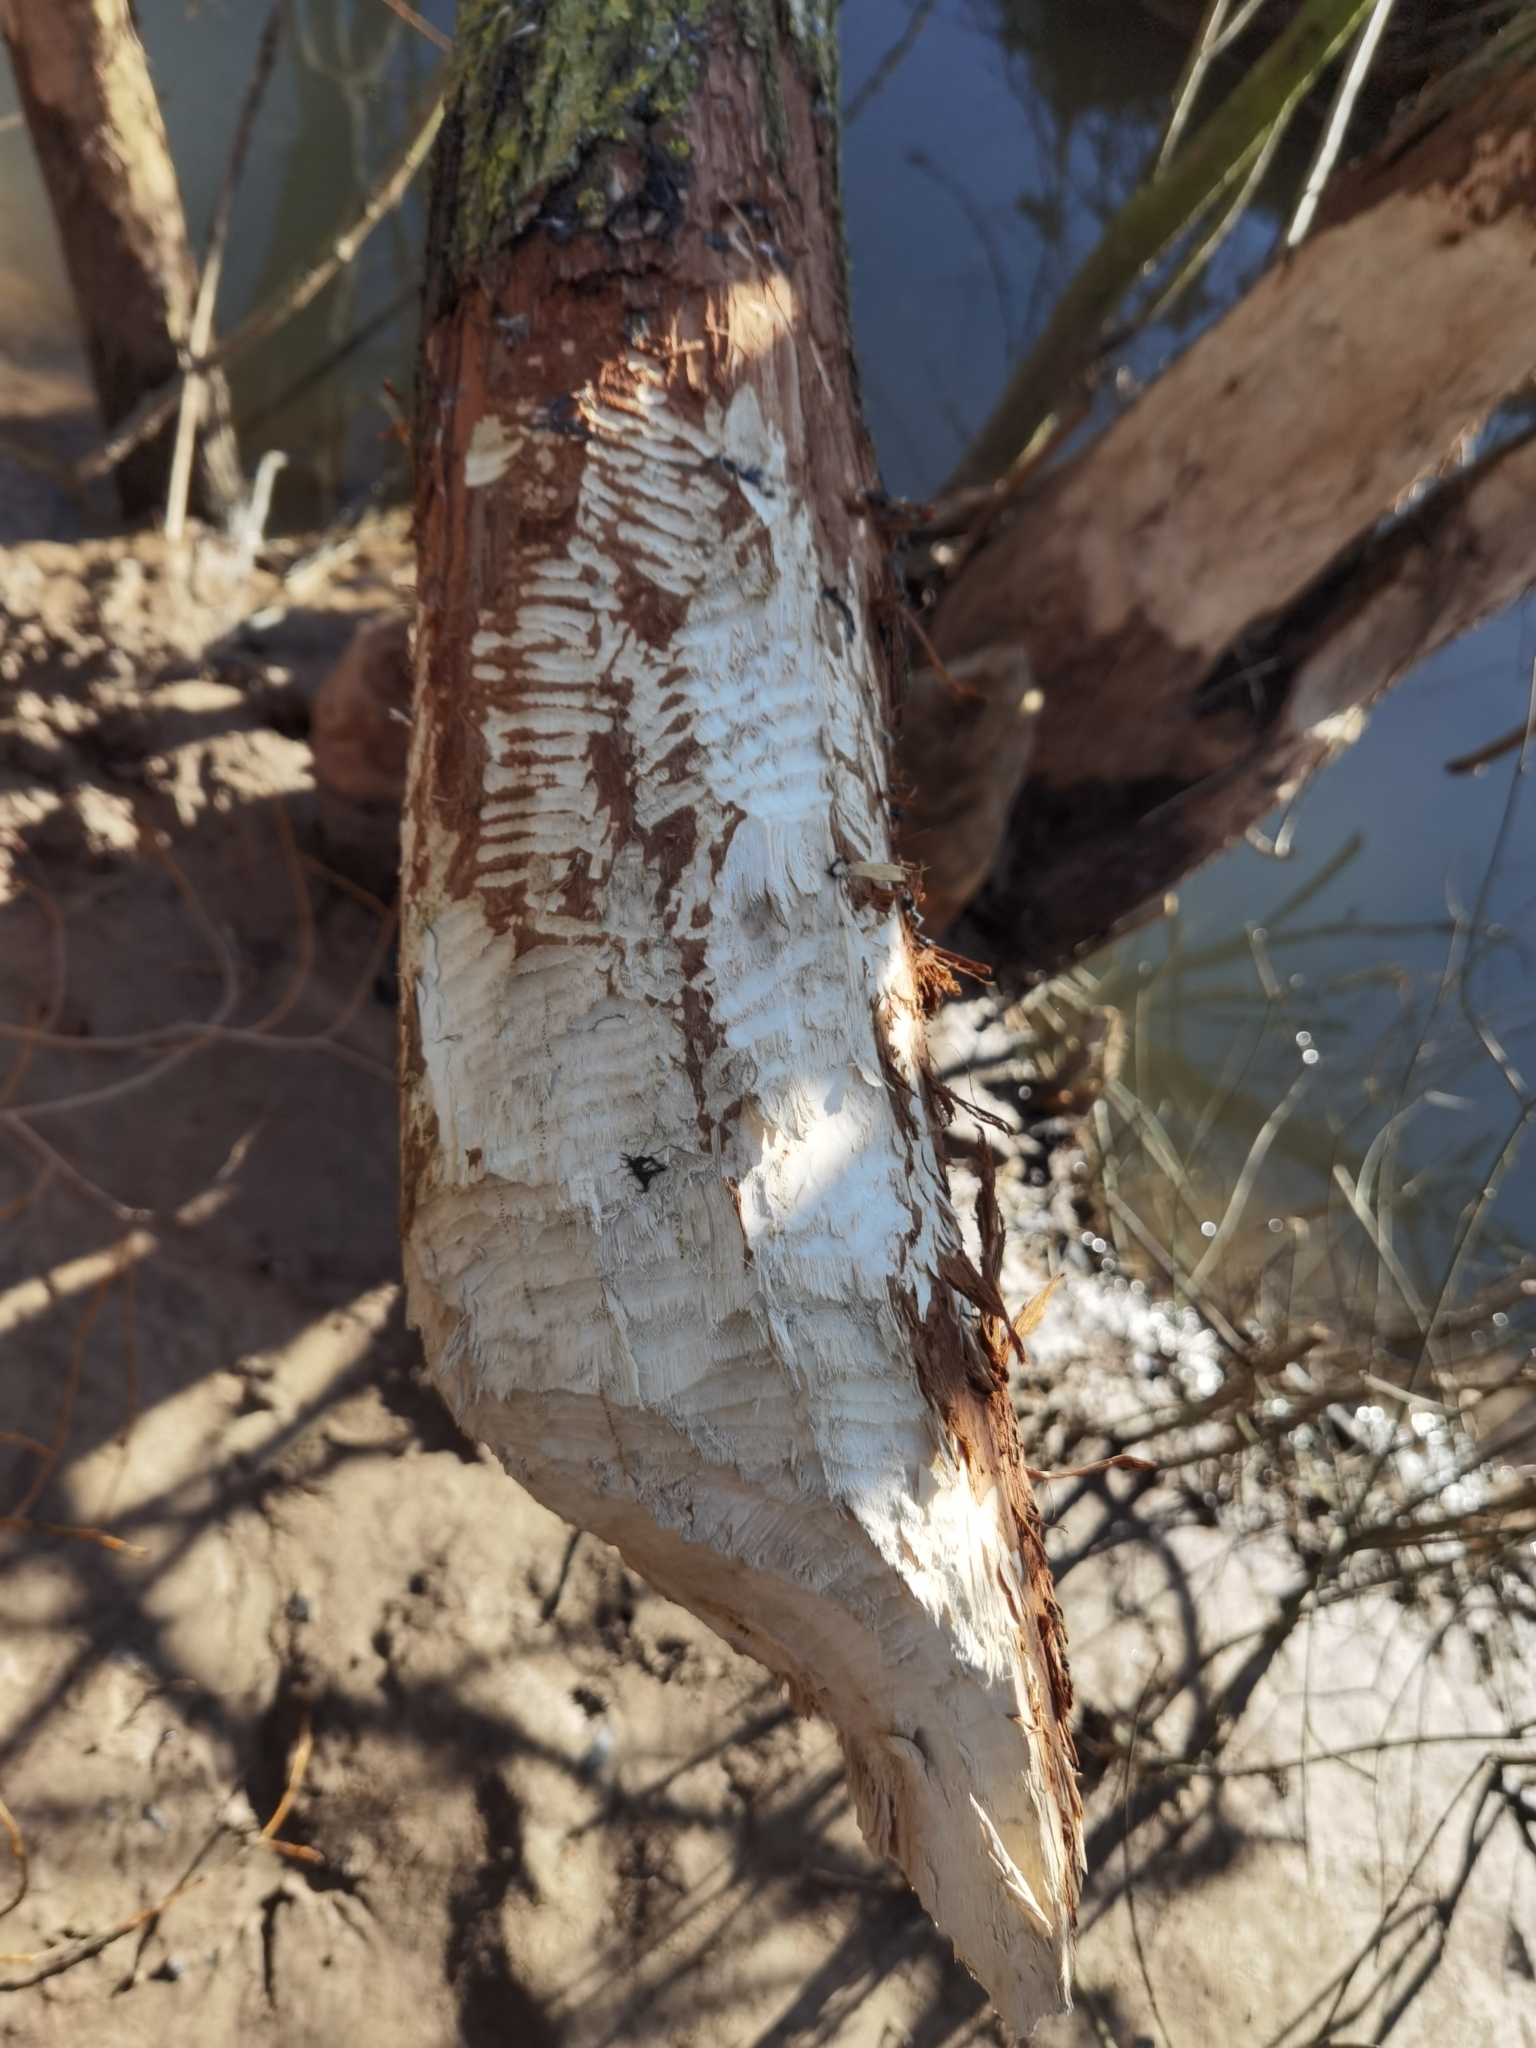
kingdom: Animalia
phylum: Chordata
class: Mammalia
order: Rodentia
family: Castoridae
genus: Castor
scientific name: Castor fiber
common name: Eurasian beaver
